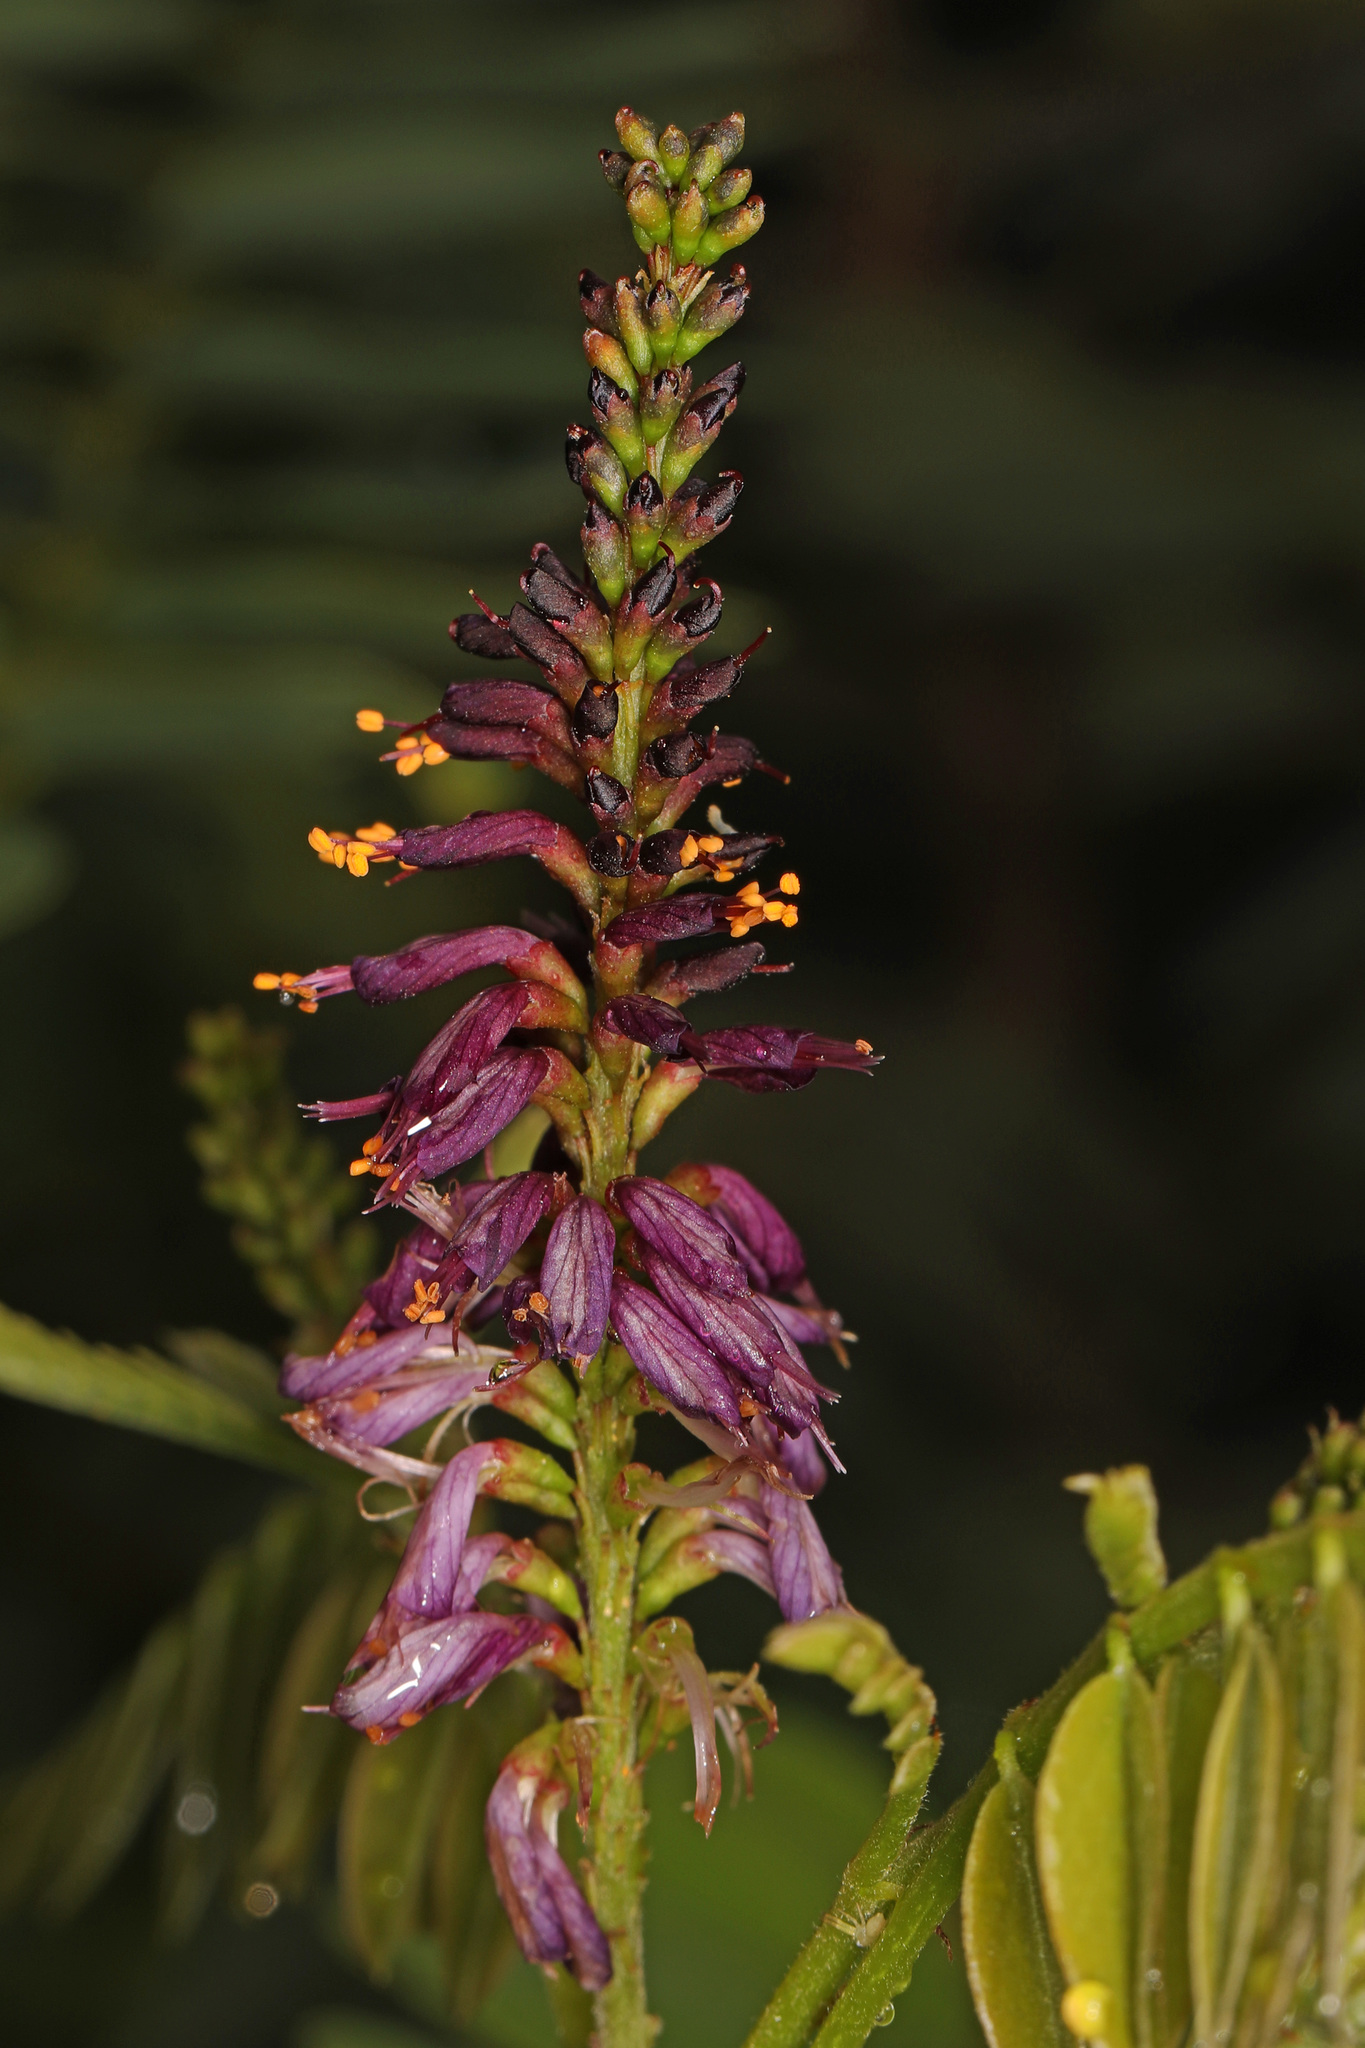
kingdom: Plantae
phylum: Tracheophyta
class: Magnoliopsida
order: Fabales
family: Fabaceae
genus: Amorpha
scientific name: Amorpha fruticosa
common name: False indigo
